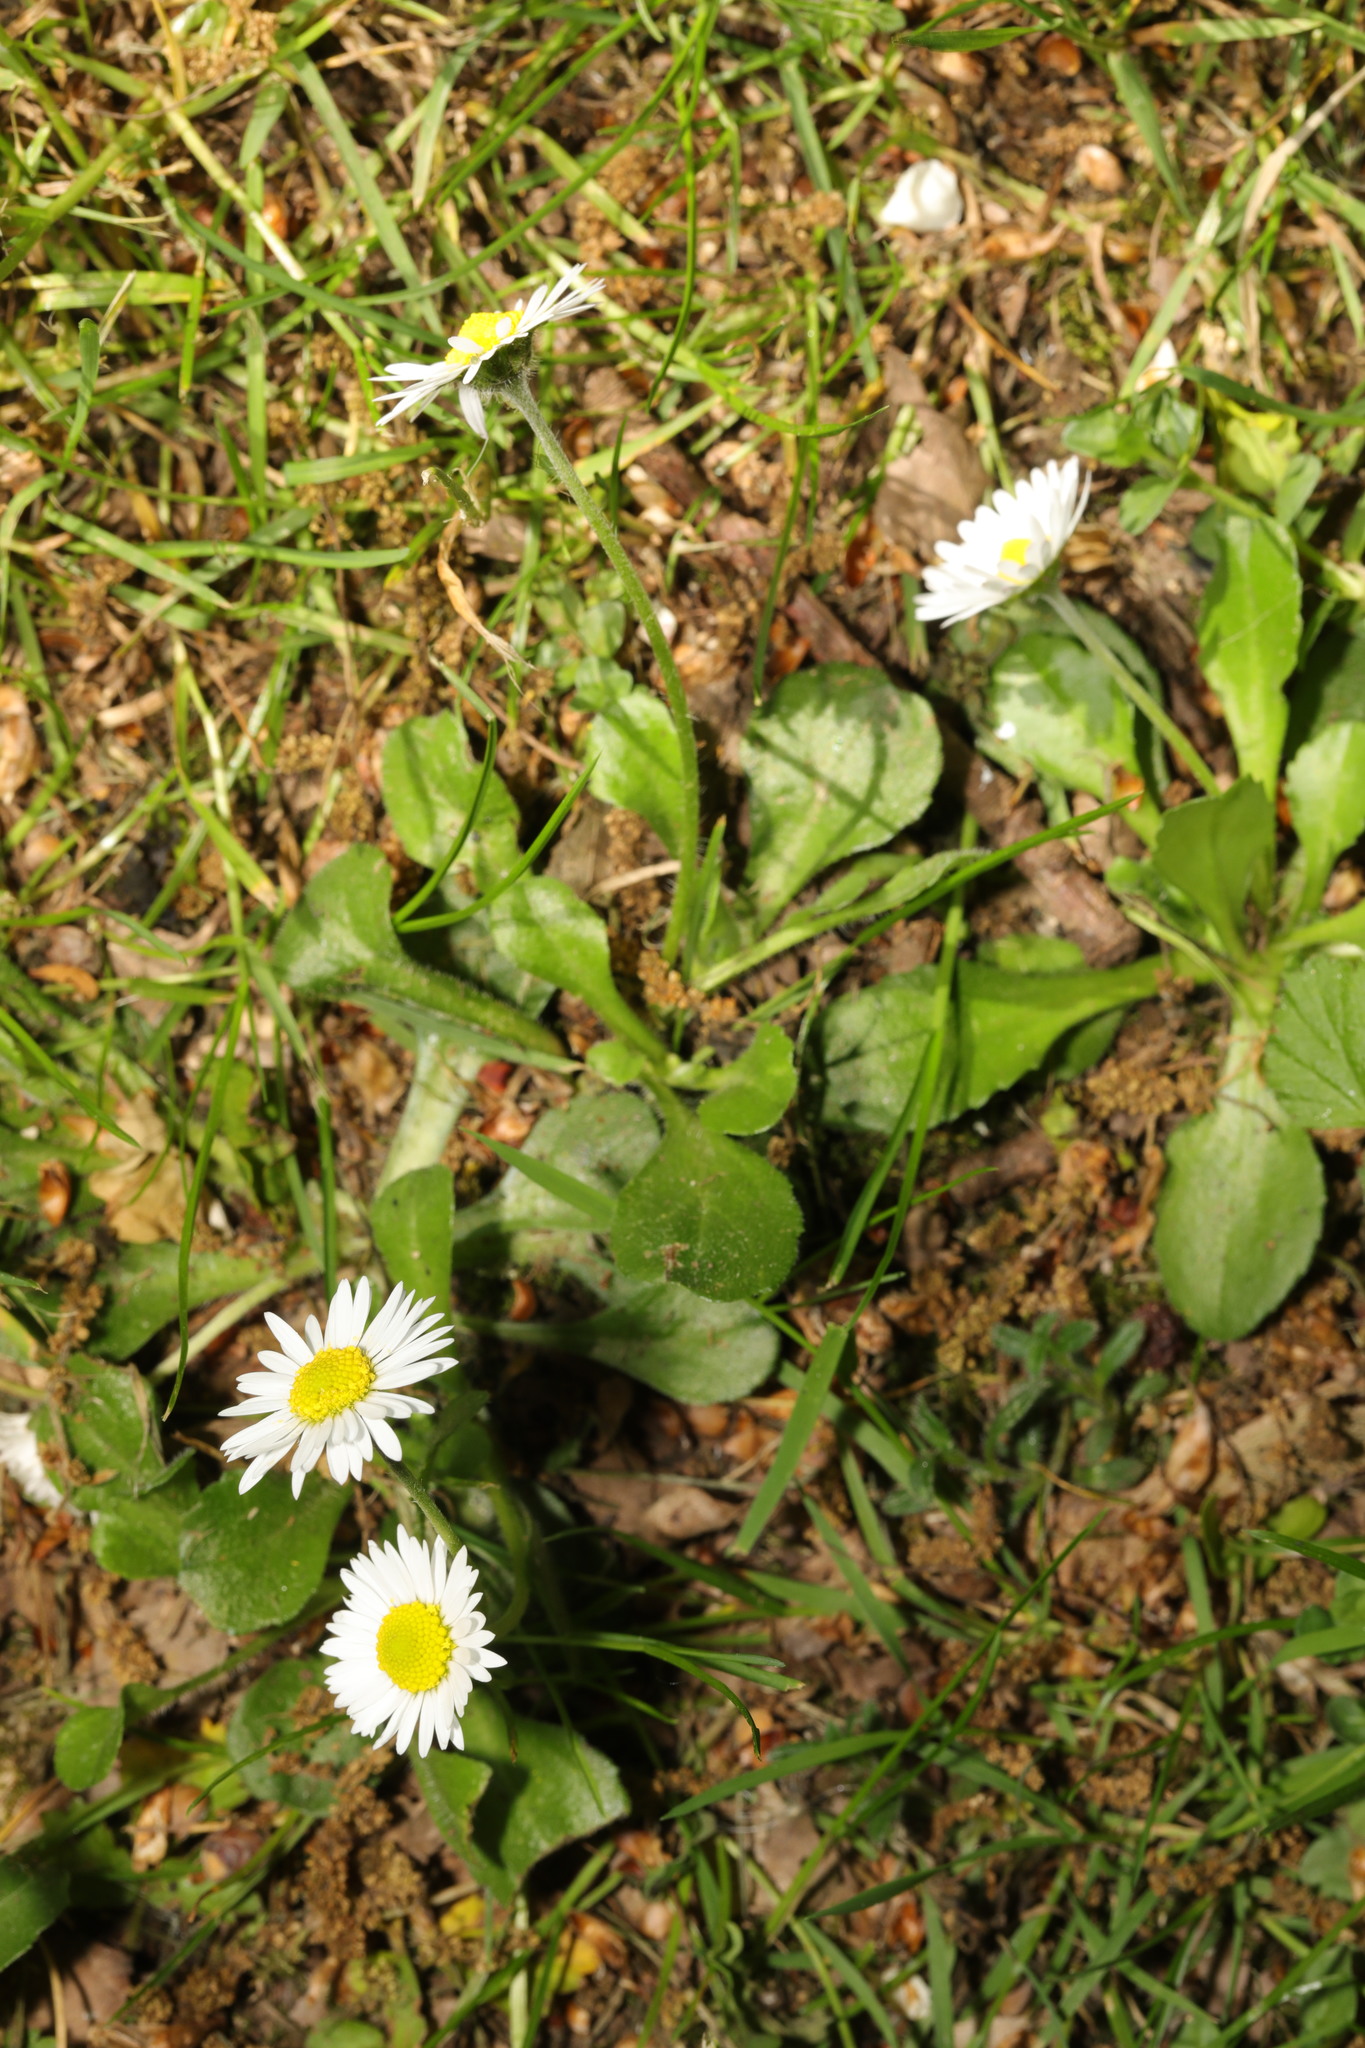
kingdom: Plantae
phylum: Tracheophyta
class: Magnoliopsida
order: Asterales
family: Asteraceae
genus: Bellis
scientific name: Bellis perennis
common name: Lawndaisy
